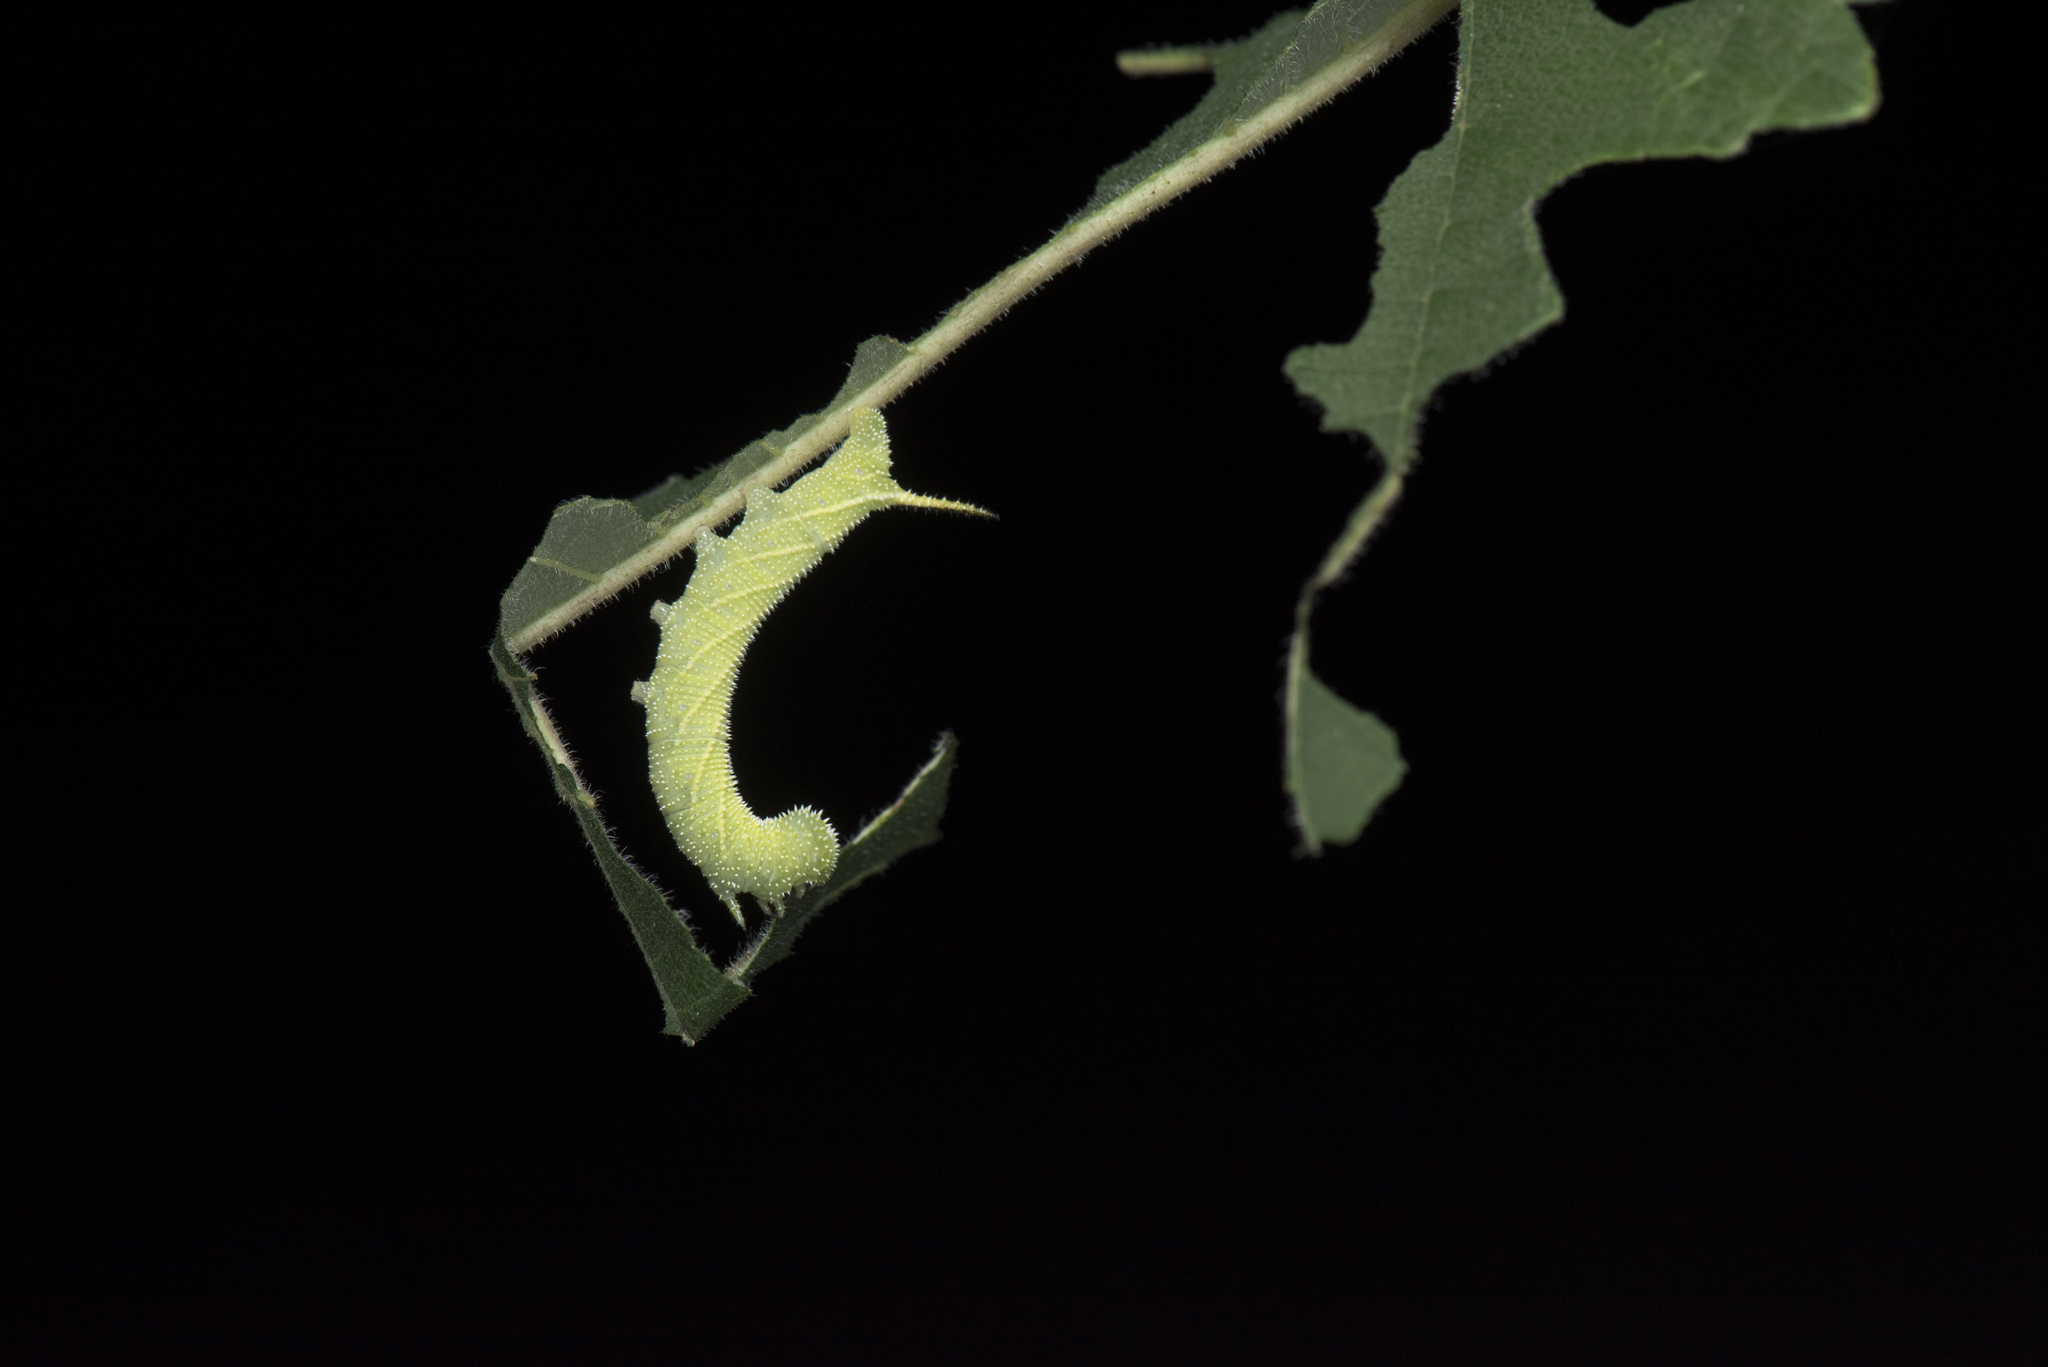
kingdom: Animalia
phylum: Arthropoda
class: Insecta
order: Lepidoptera
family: Sphingidae
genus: Parum
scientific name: Parum colligata
